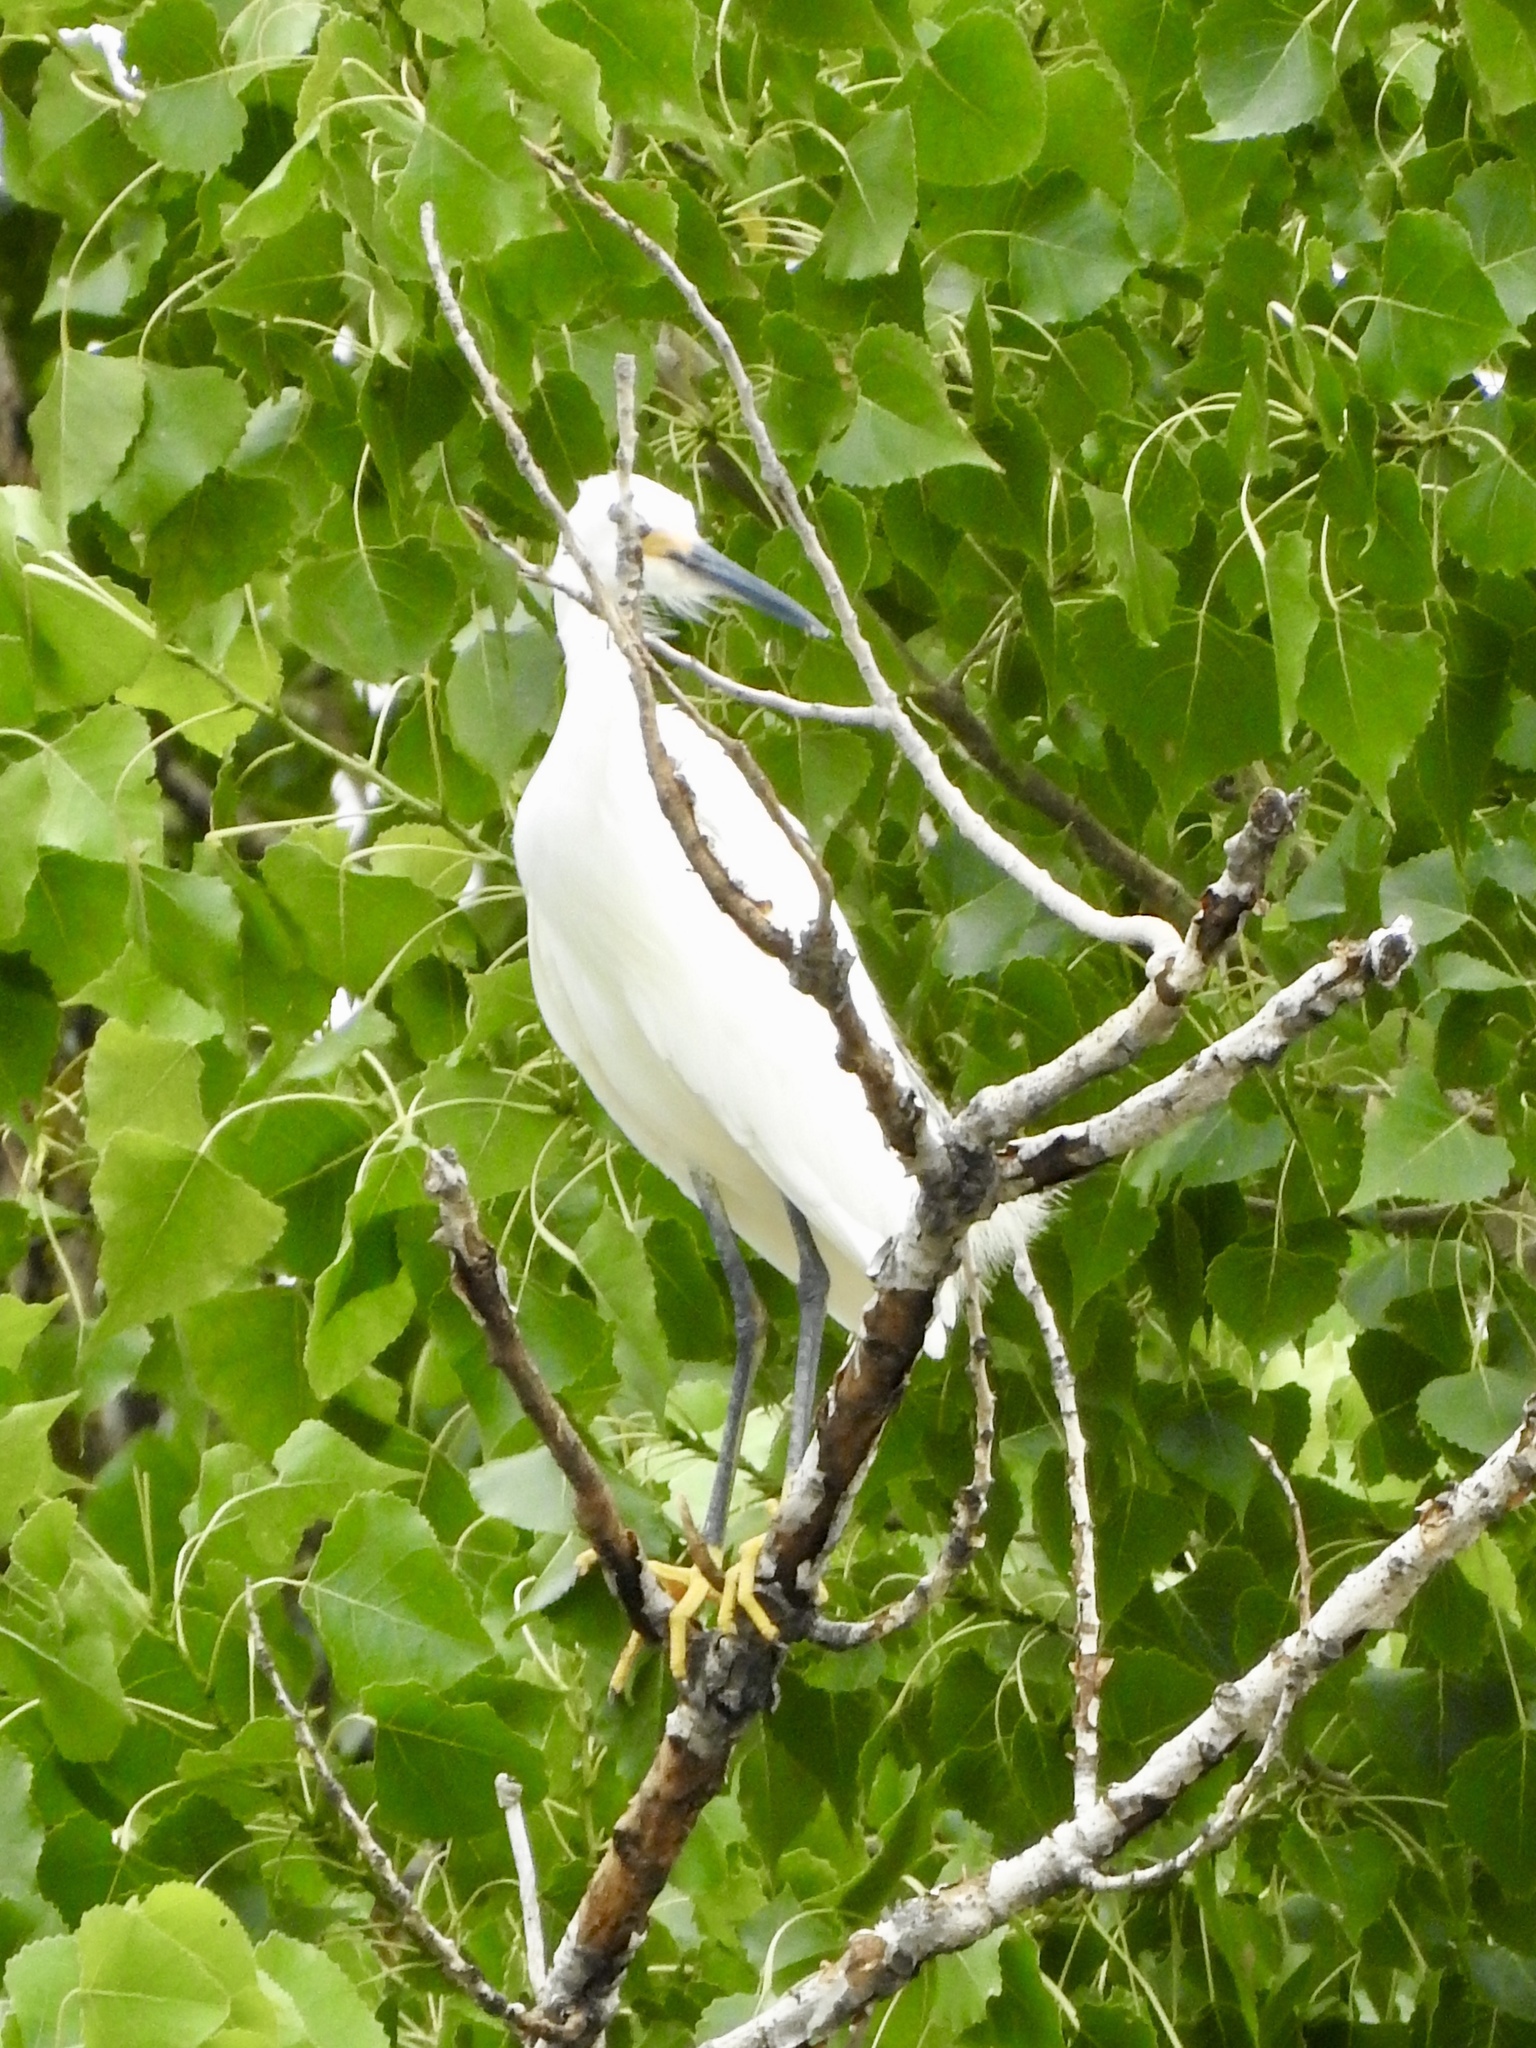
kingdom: Animalia
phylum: Chordata
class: Aves
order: Pelecaniformes
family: Ardeidae
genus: Egretta
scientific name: Egretta thula
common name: Snowy egret
